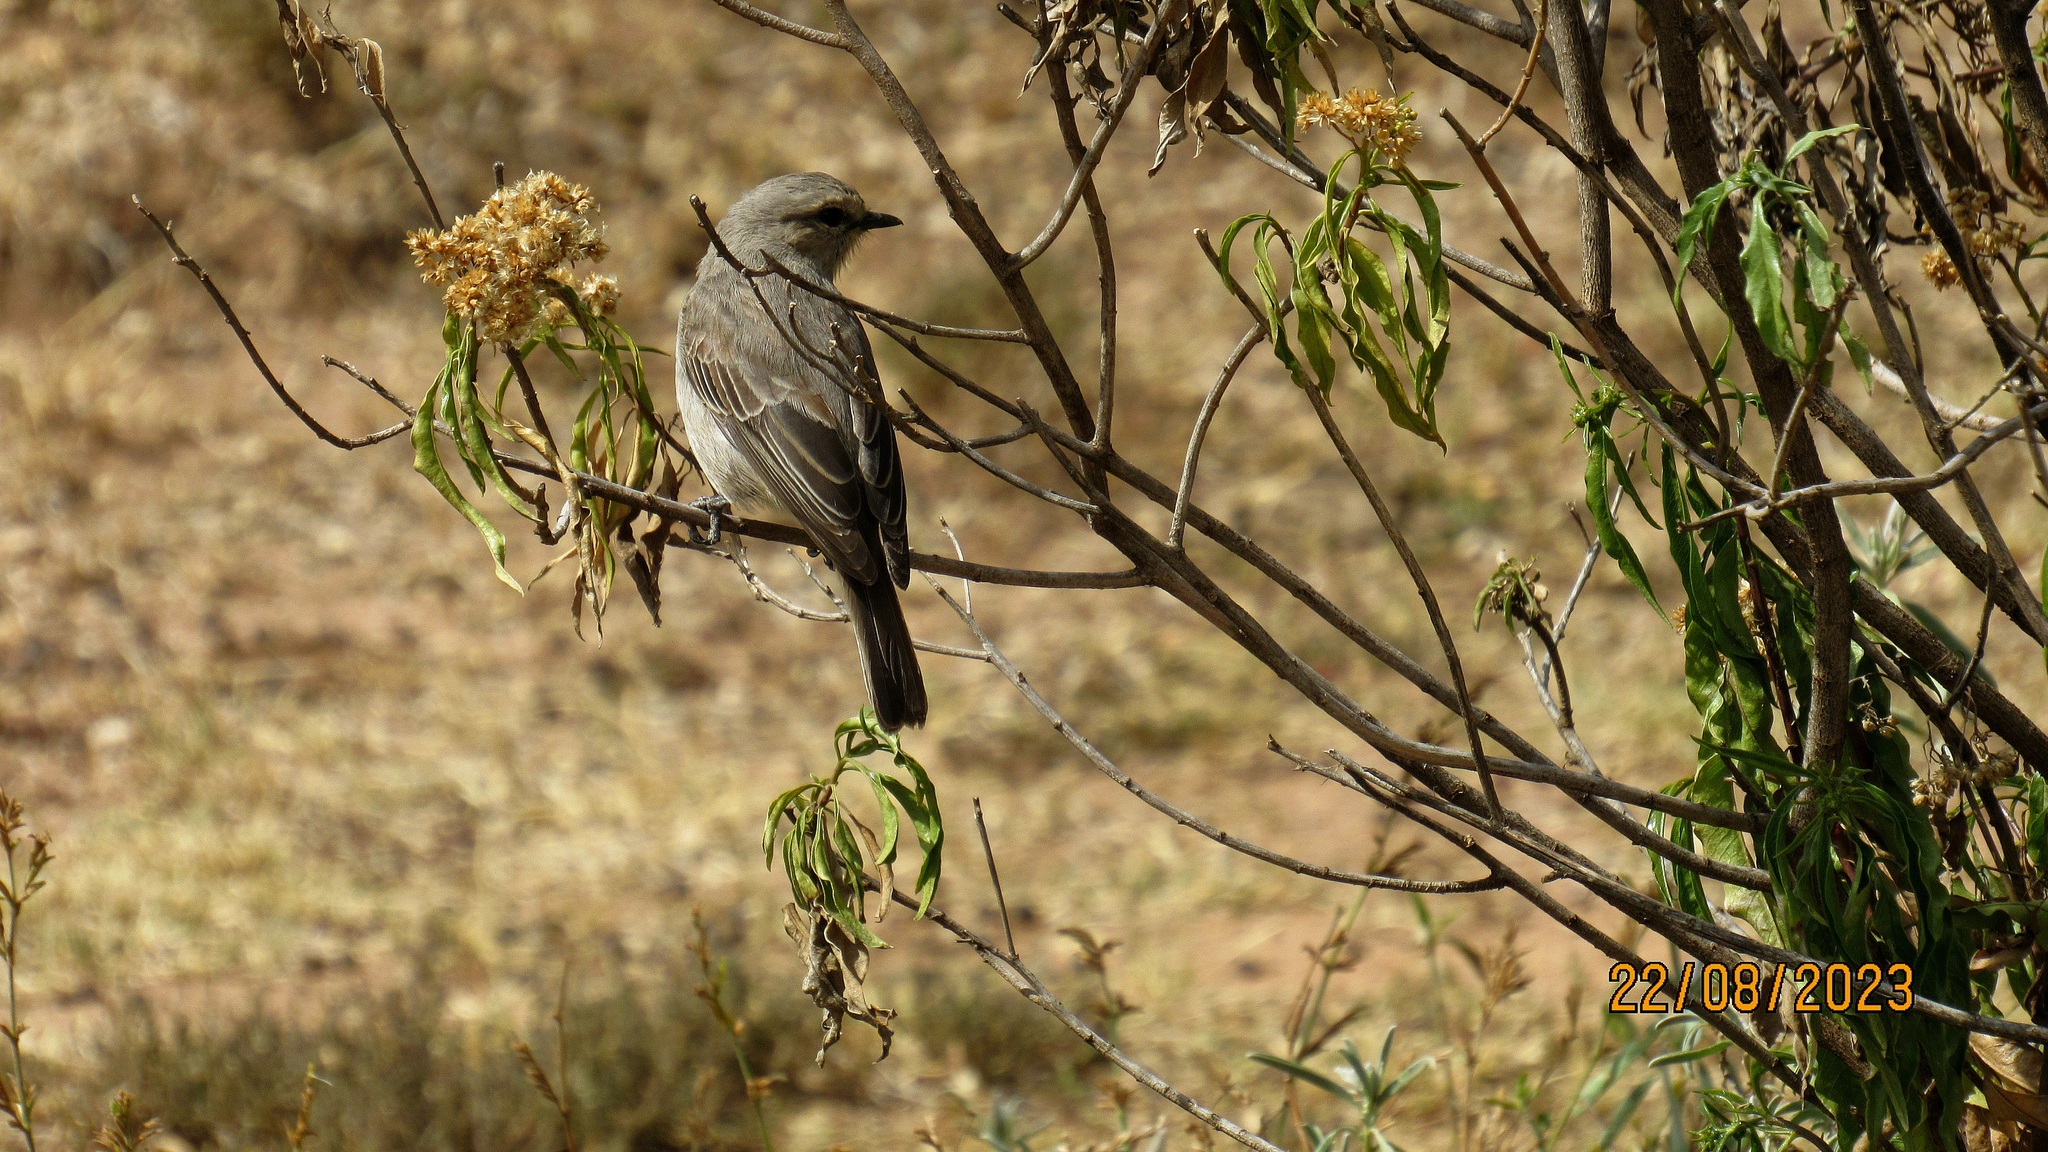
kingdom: Animalia
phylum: Chordata
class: Aves
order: Passeriformes
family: Muscicapidae
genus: Bradornis
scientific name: Bradornis microrhynchus
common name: African grey flycatcher
